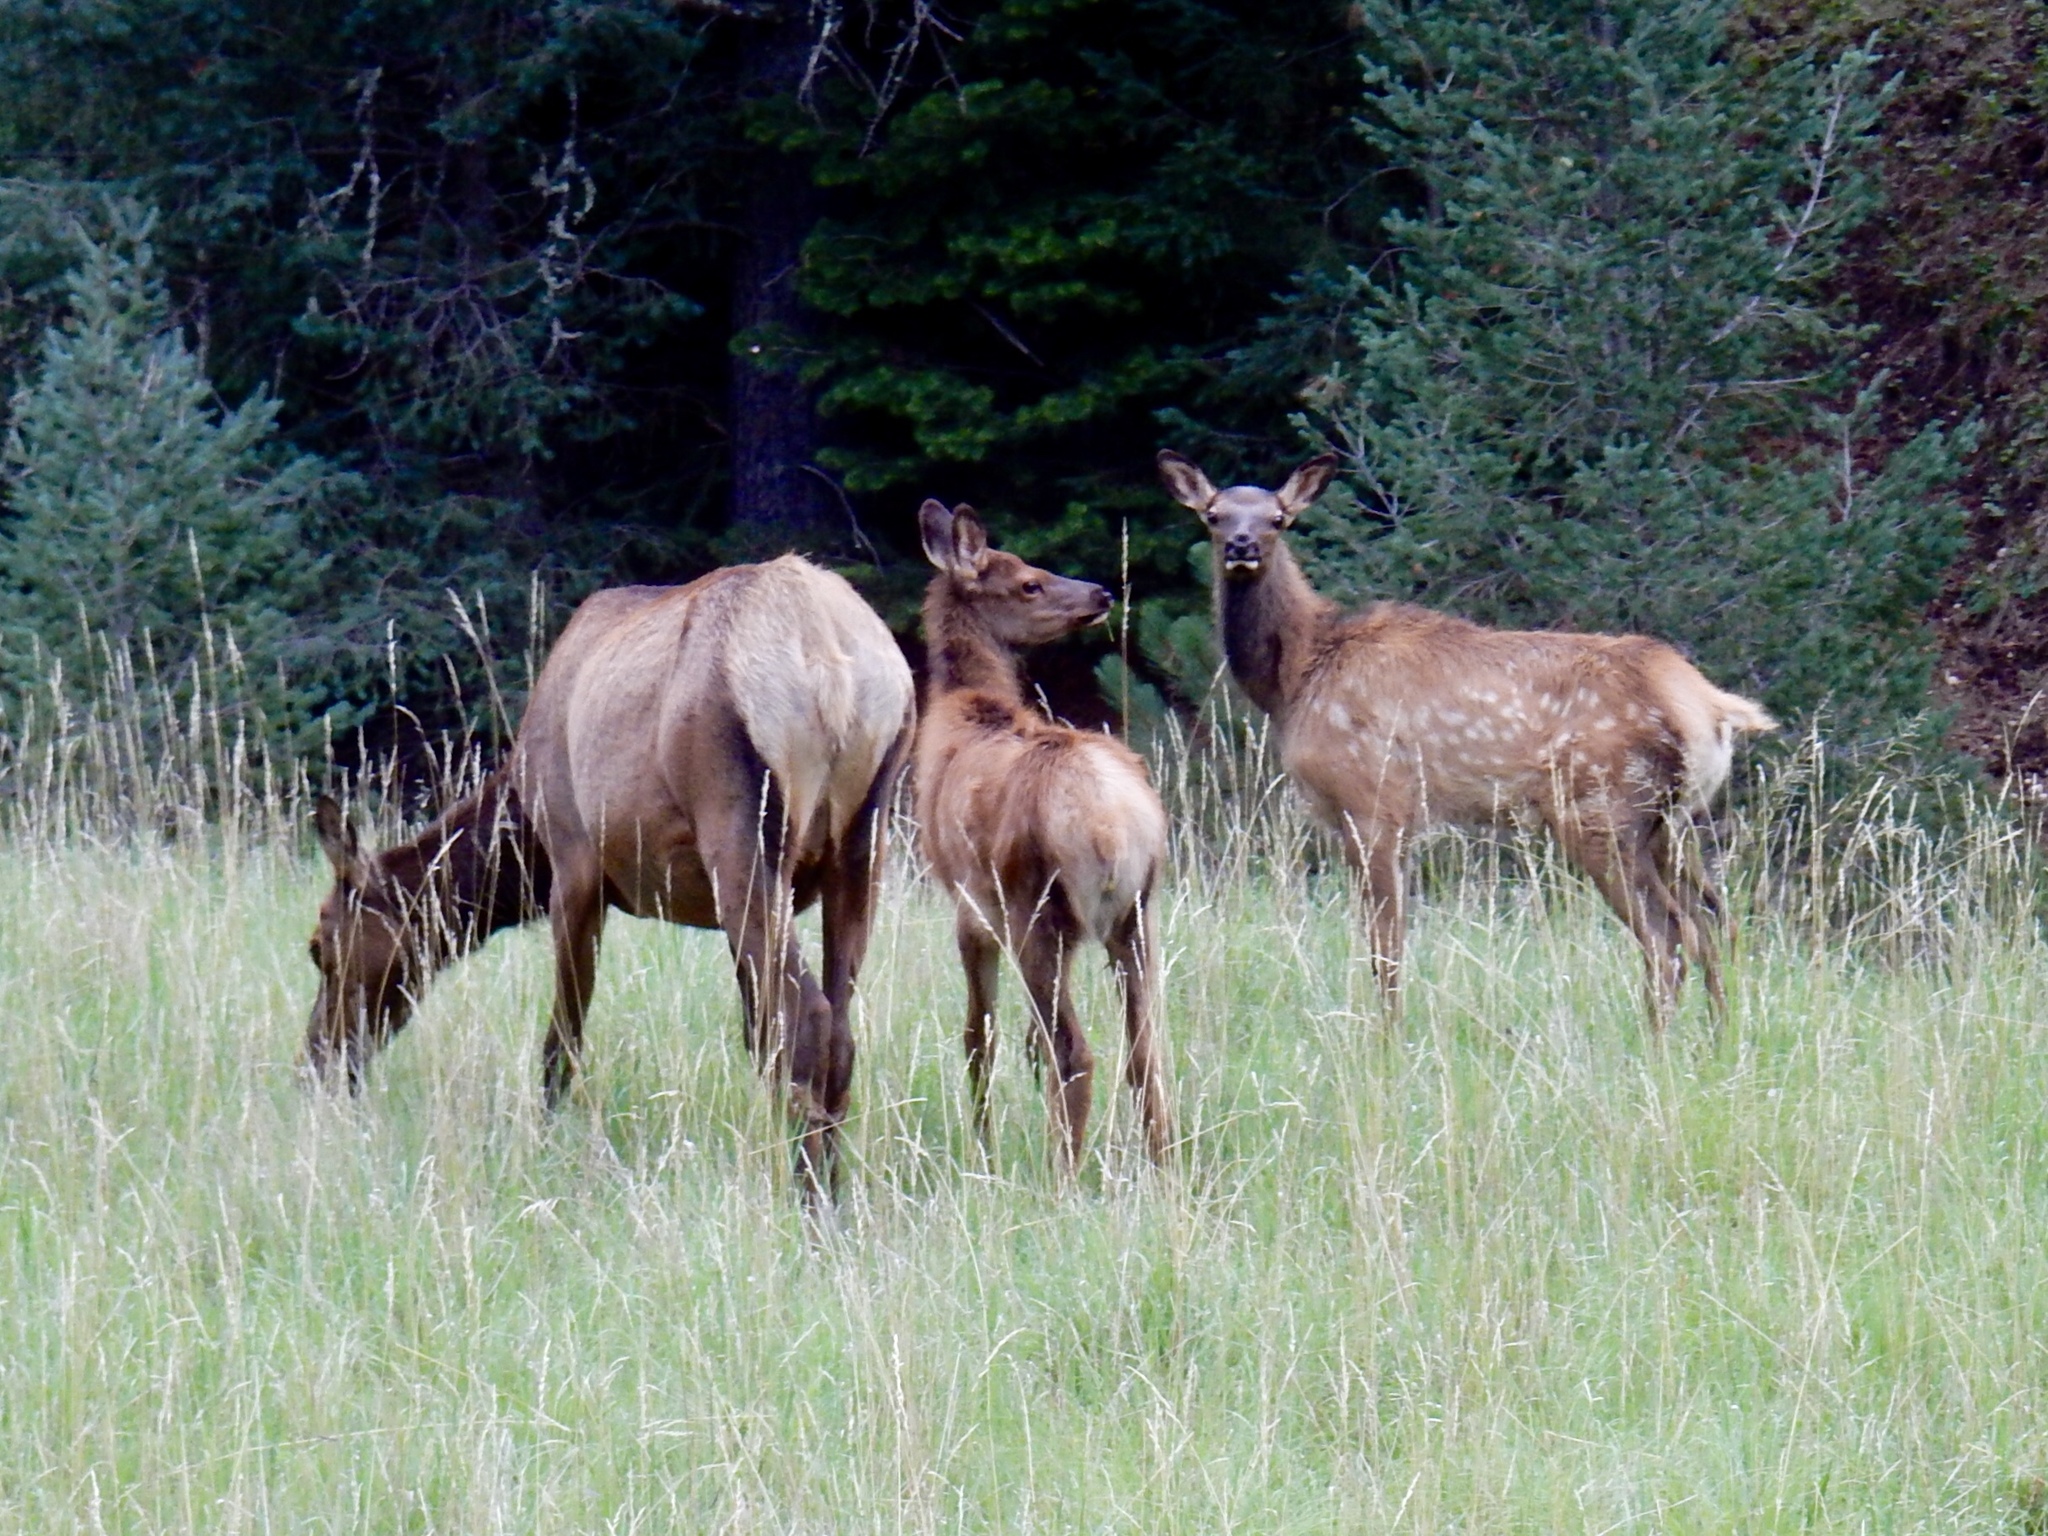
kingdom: Animalia
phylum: Chordata
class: Mammalia
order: Artiodactyla
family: Cervidae
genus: Cervus
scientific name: Cervus elaphus
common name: Red deer
